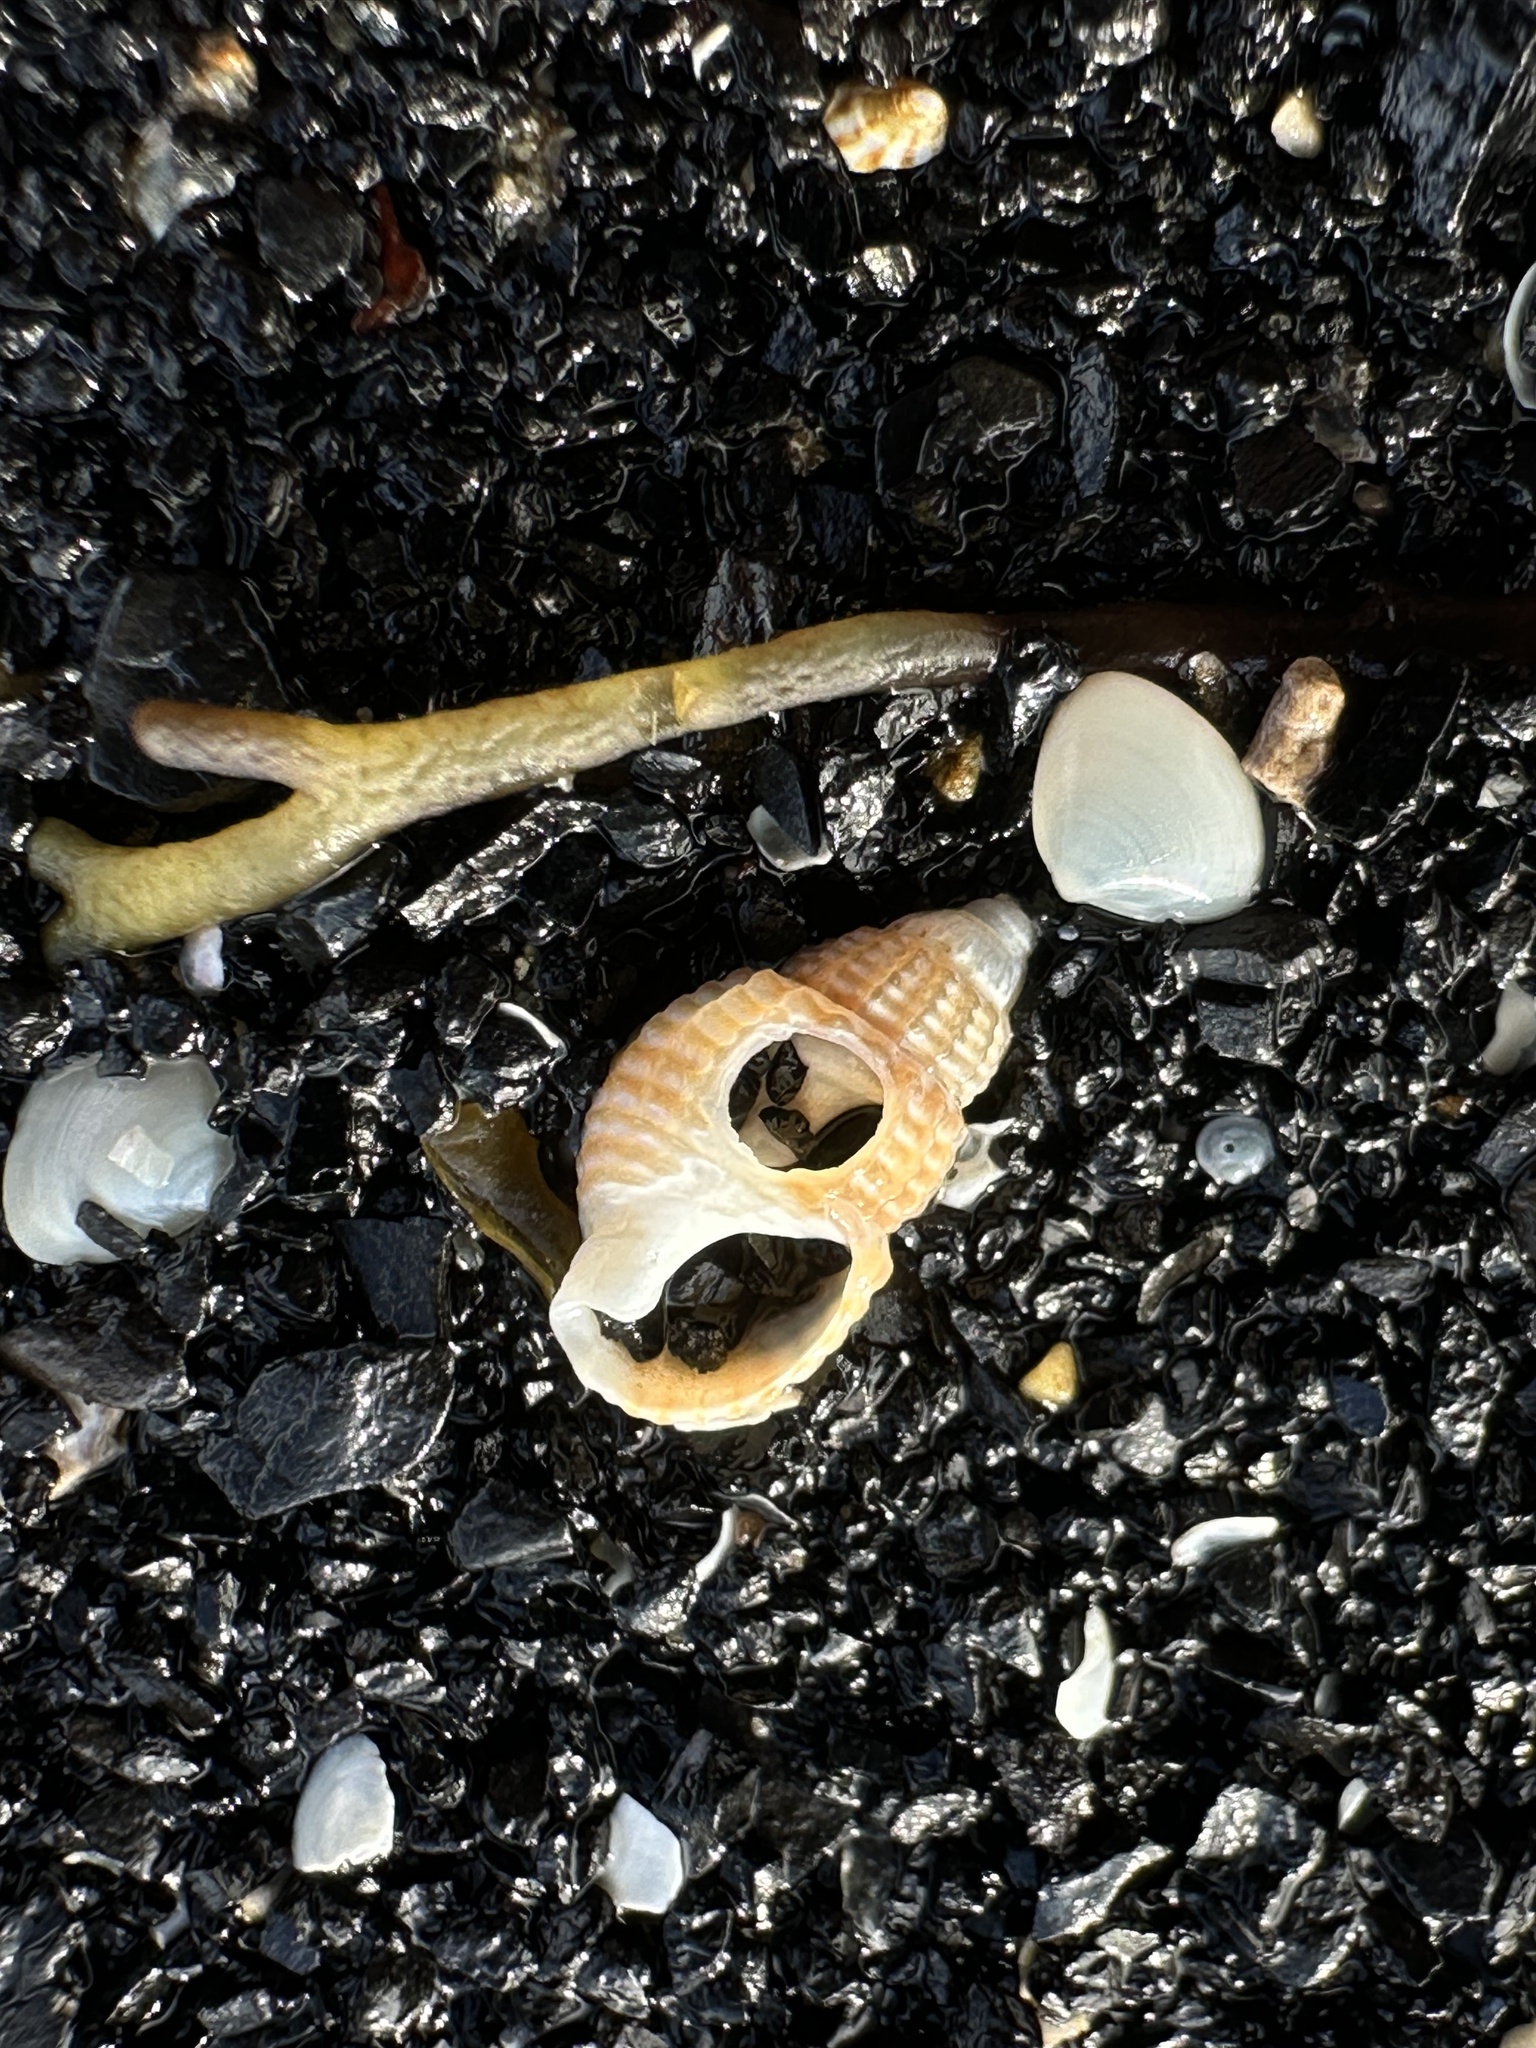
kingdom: Animalia
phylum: Mollusca
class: Gastropoda
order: Neogastropoda
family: Nassariidae
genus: Ilyanassa
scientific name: Ilyanassa trivittata
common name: Three-line mudsnail
